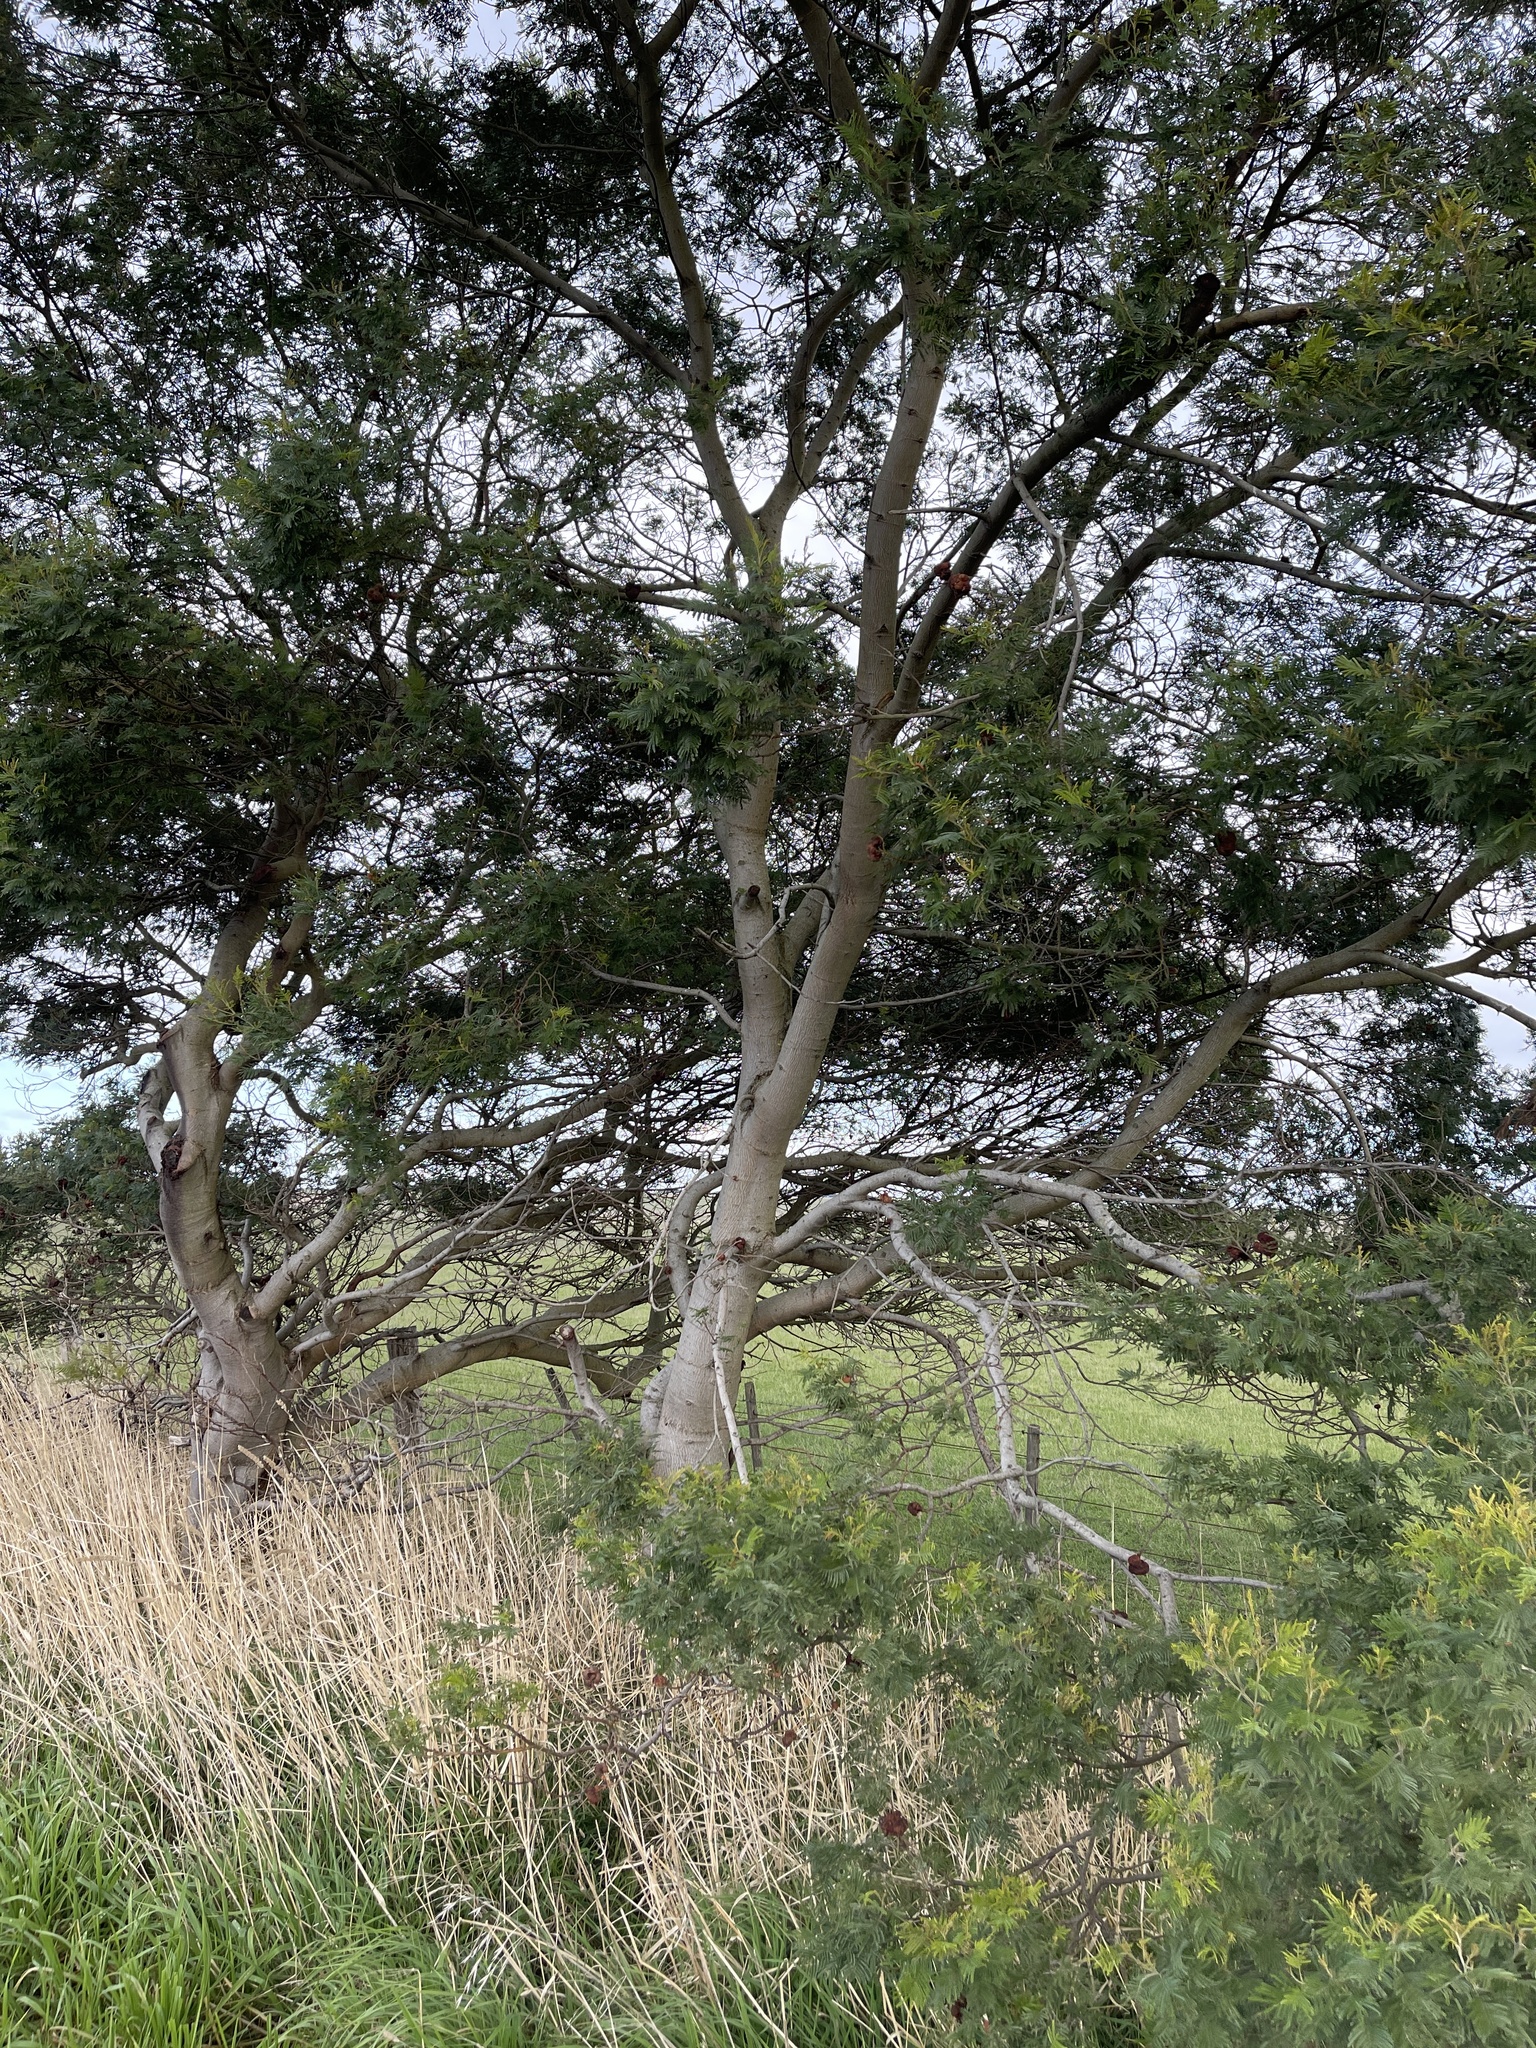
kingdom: Plantae
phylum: Tracheophyta
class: Magnoliopsida
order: Fabales
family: Fabaceae
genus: Acacia
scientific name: Acacia mearnsii
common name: Black wattle
